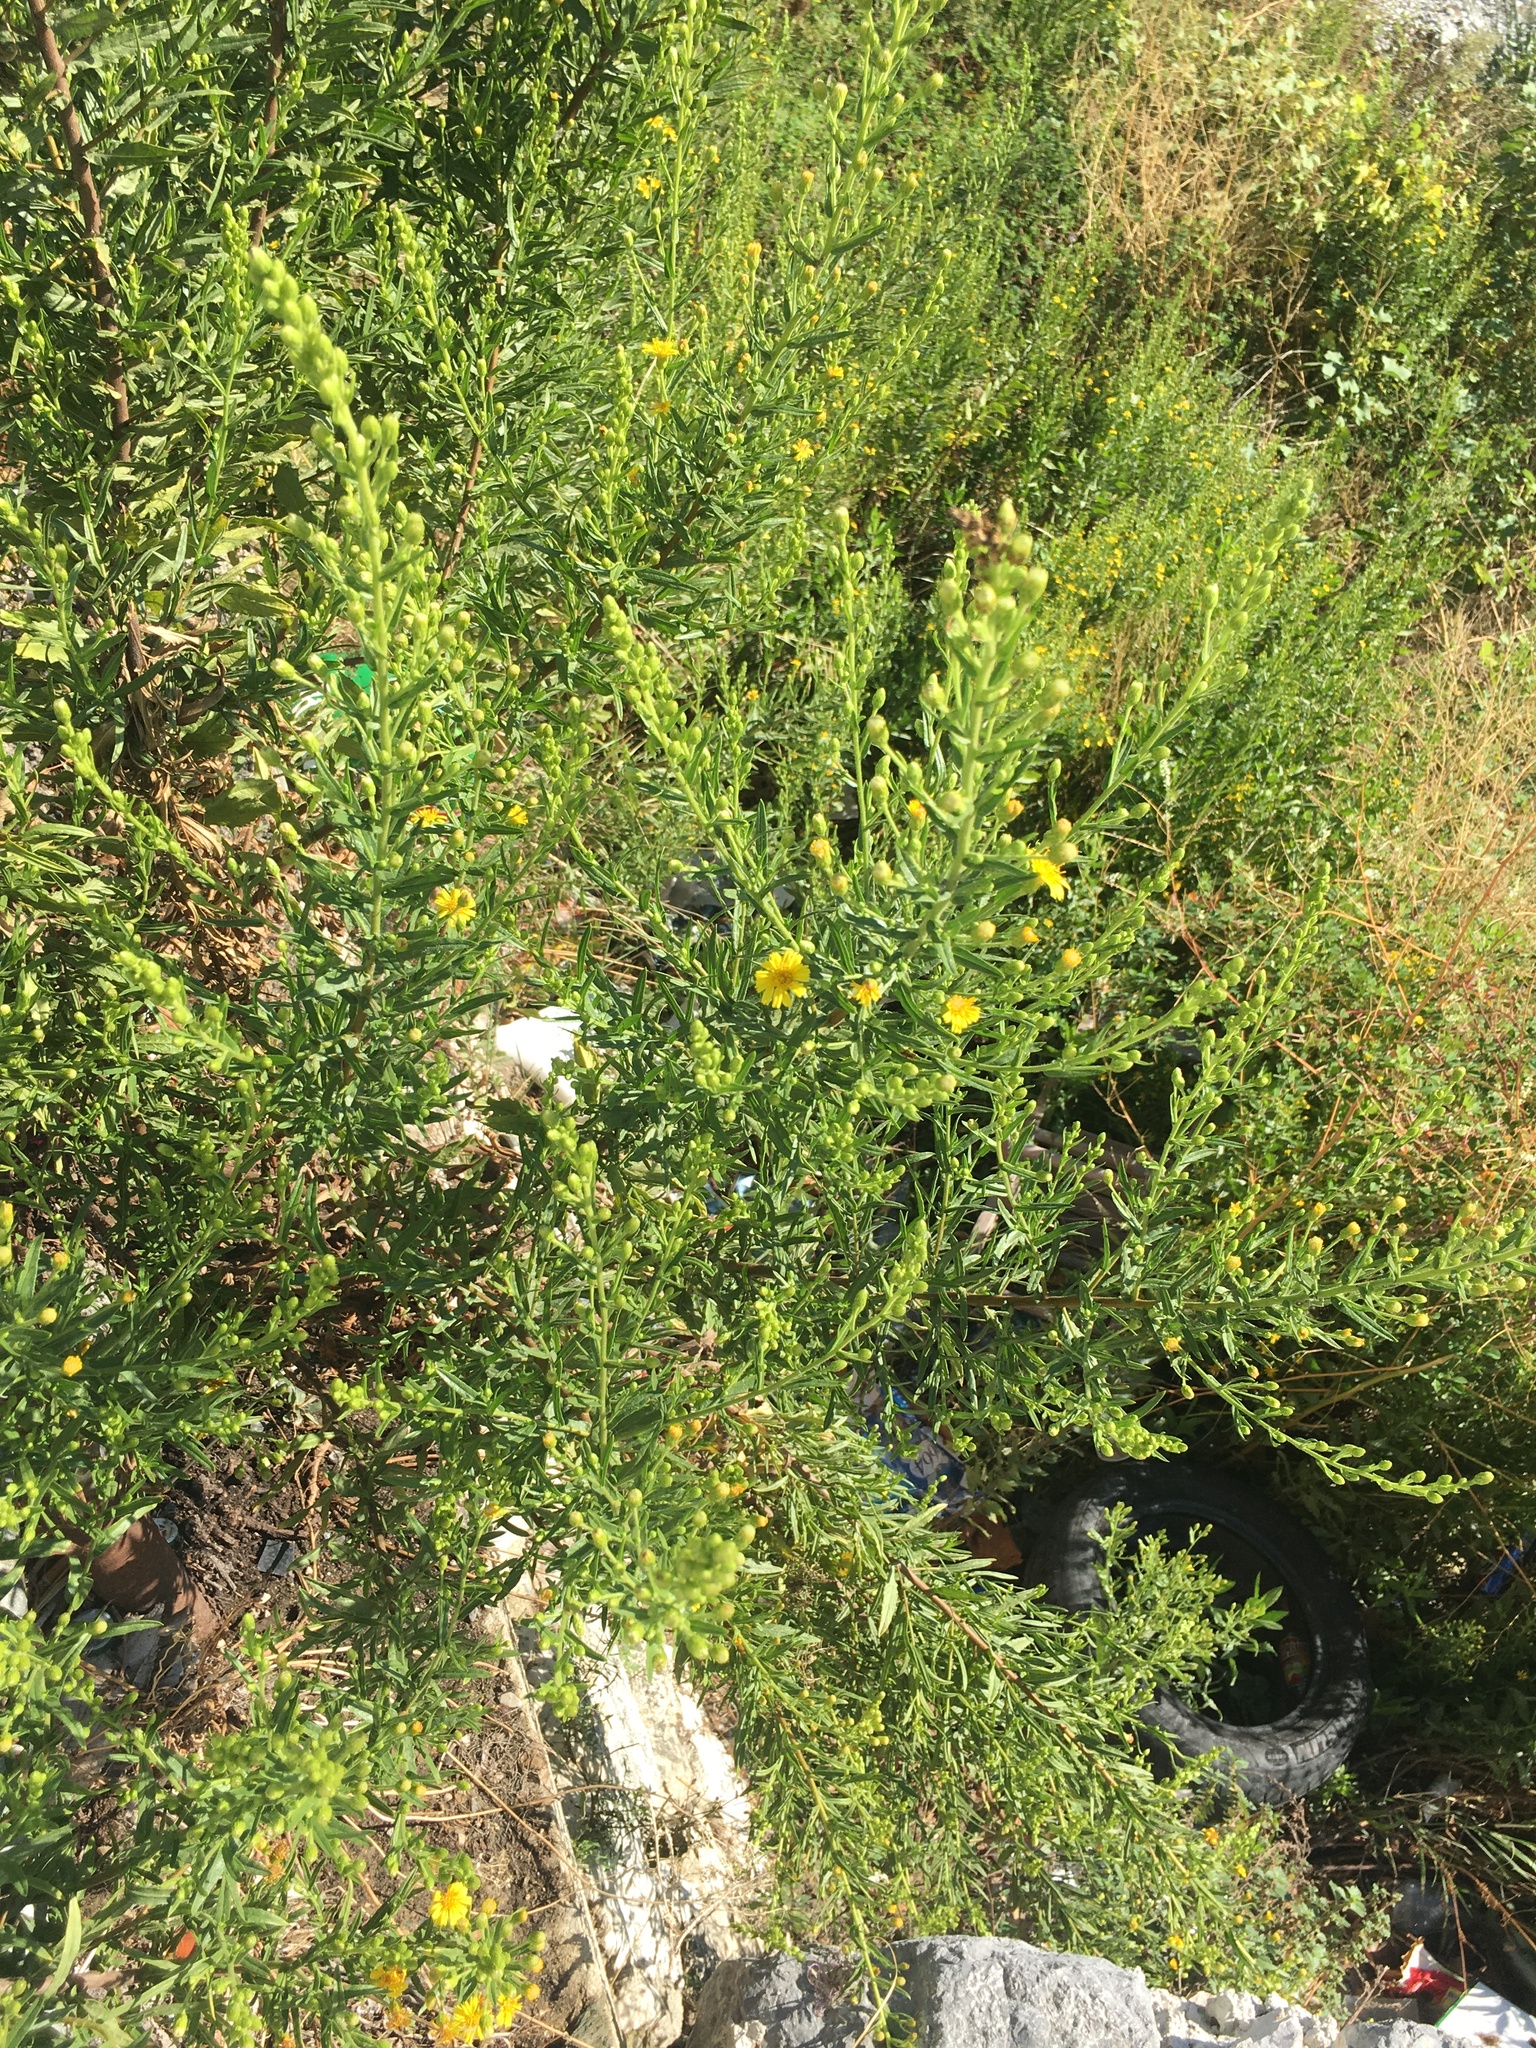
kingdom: Plantae
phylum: Tracheophyta
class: Magnoliopsida
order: Asterales
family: Asteraceae
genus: Dittrichia
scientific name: Dittrichia viscosa
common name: Woody fleabane
